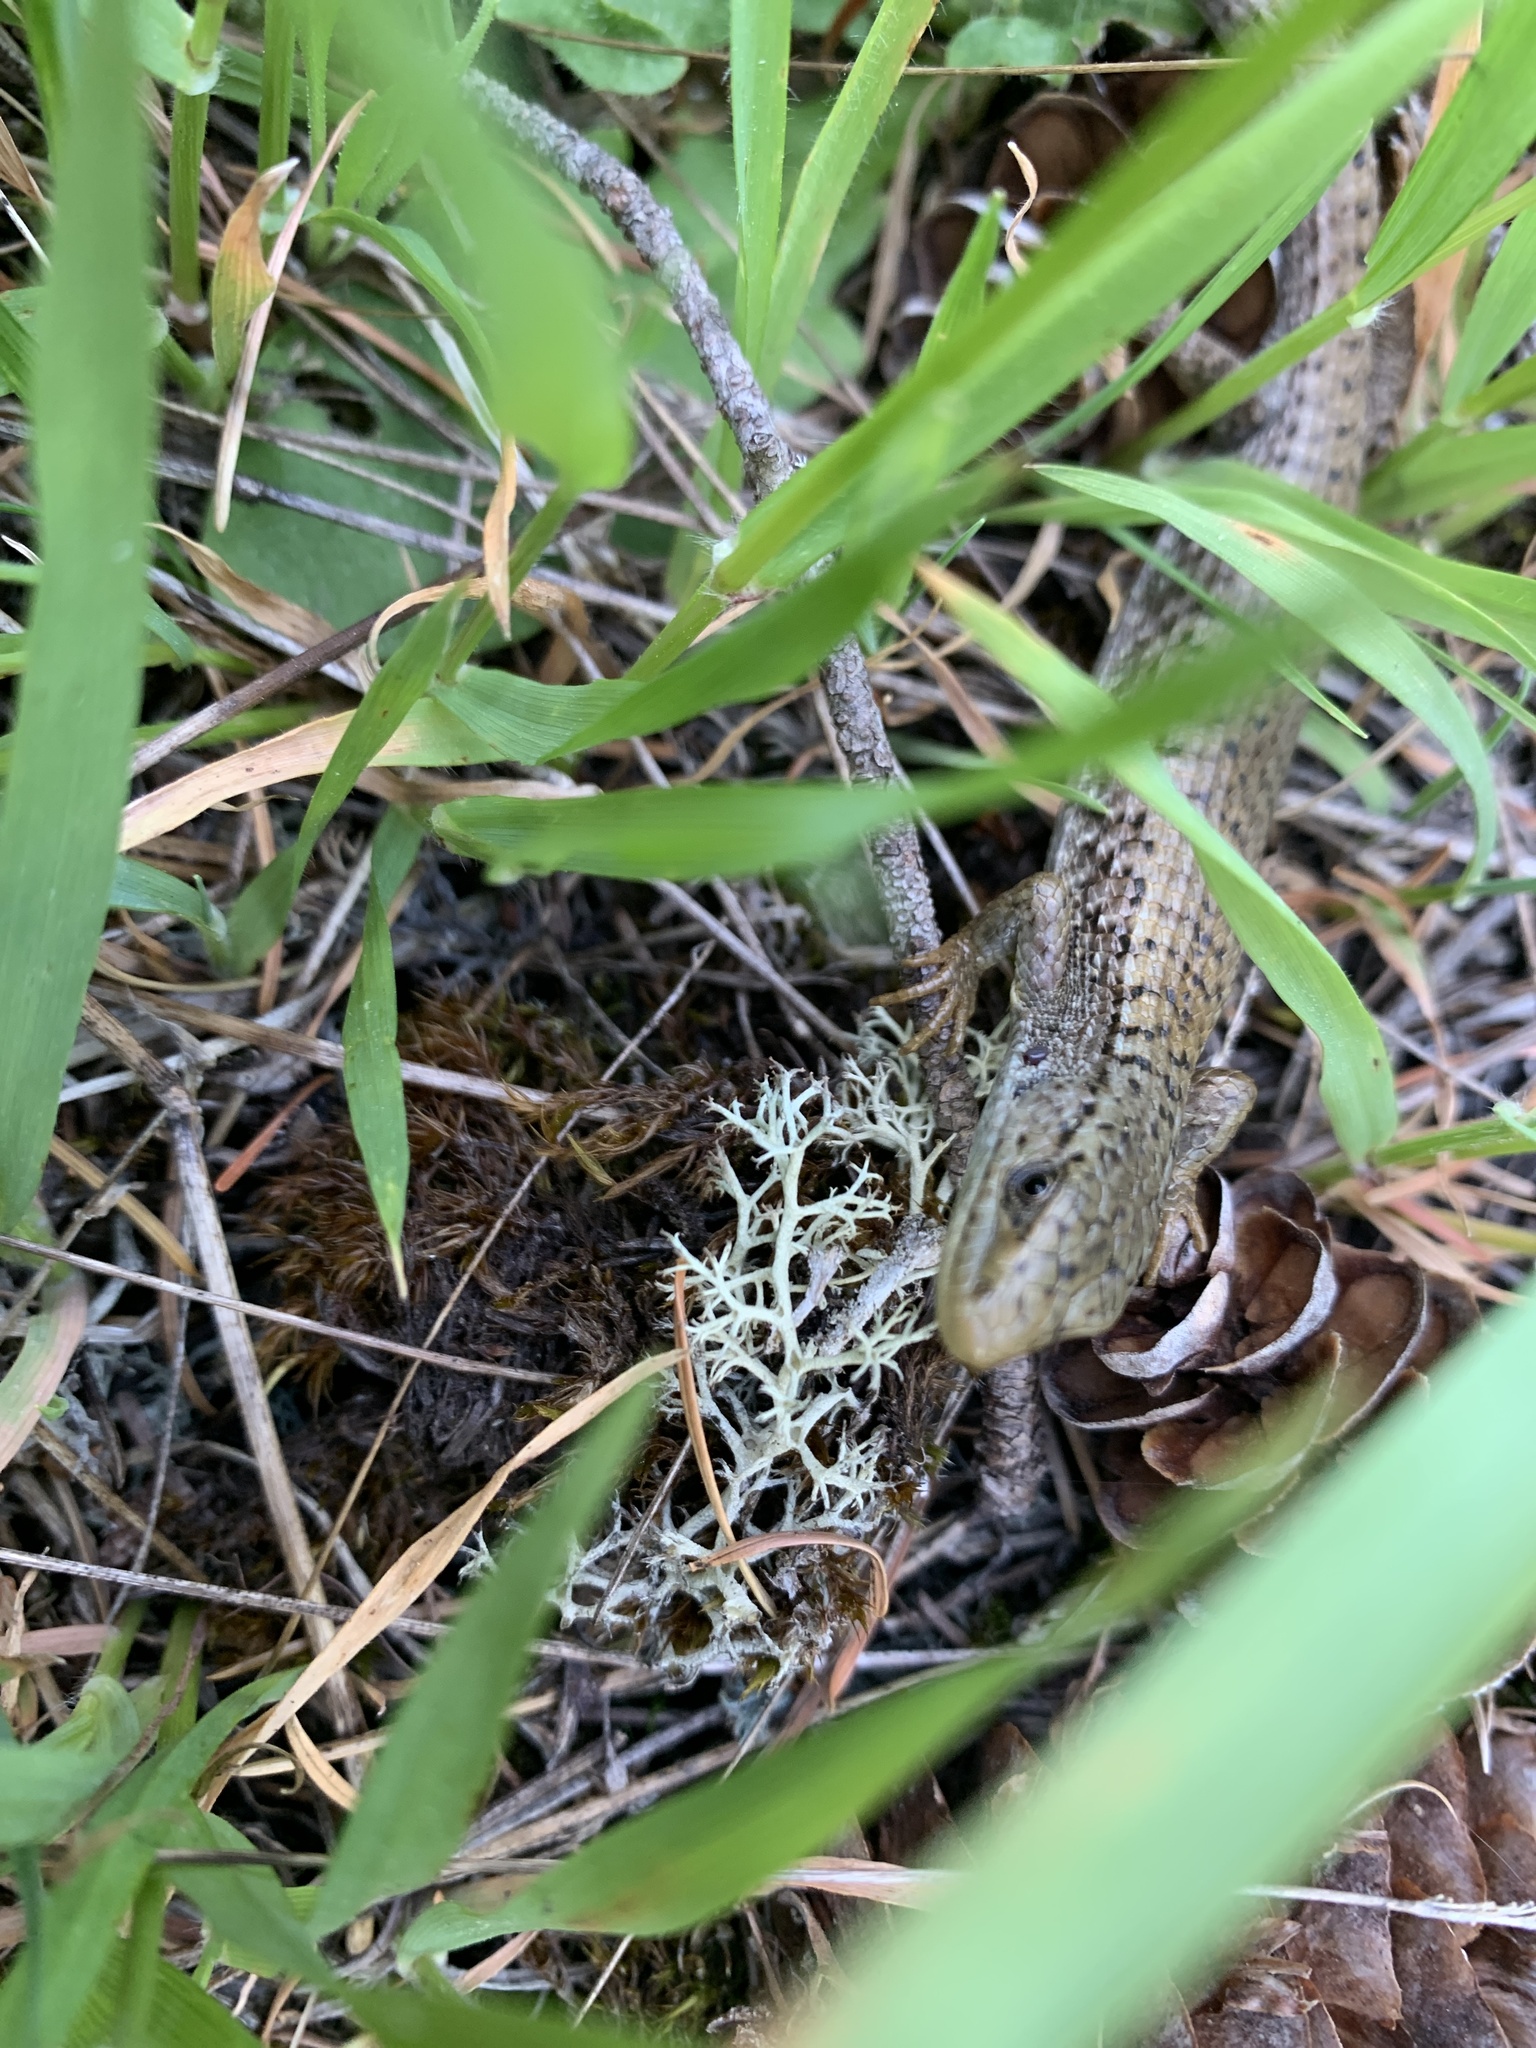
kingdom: Animalia
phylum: Chordata
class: Squamata
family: Anguidae
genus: Elgaria
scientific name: Elgaria coerulea
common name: Northern alligator lizard
